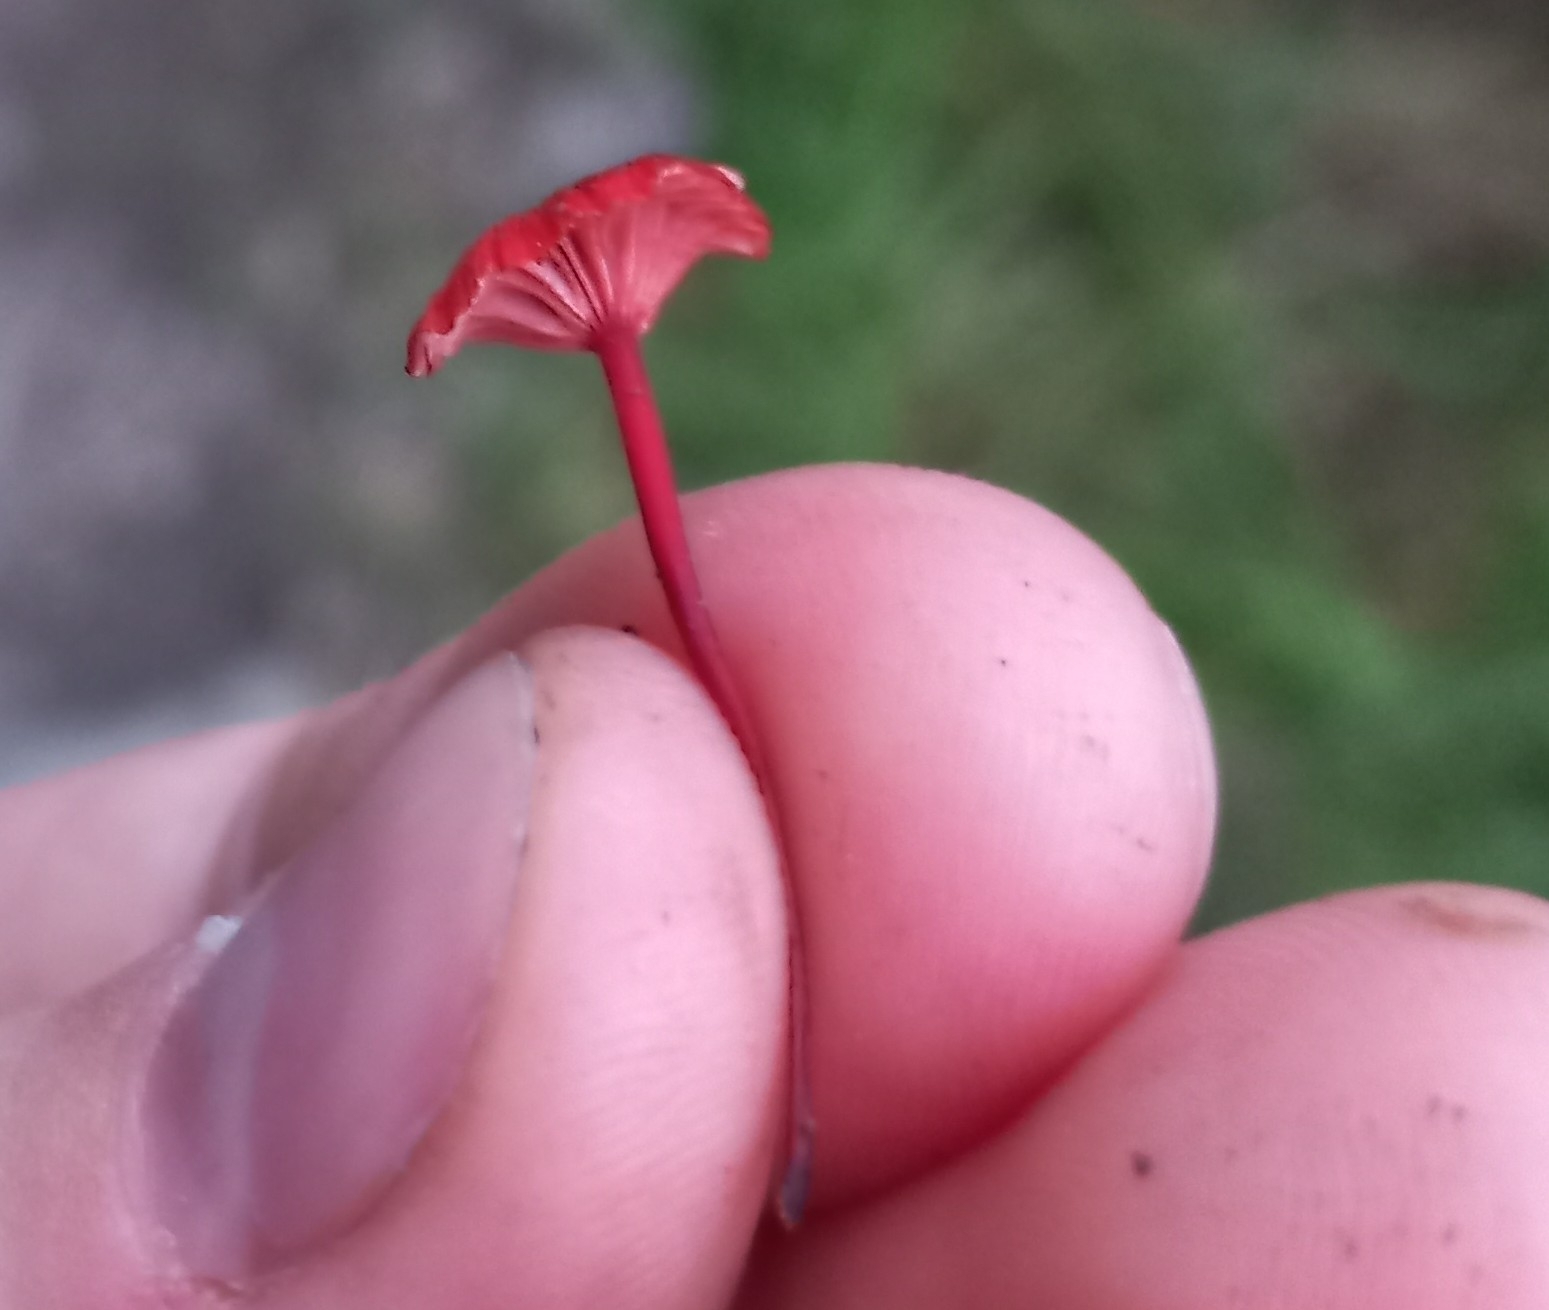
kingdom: Fungi
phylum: Basidiomycota
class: Agaricomycetes
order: Agaricales
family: Mycenaceae
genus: Cruentomycena
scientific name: Cruentomycena viscidocruenta
